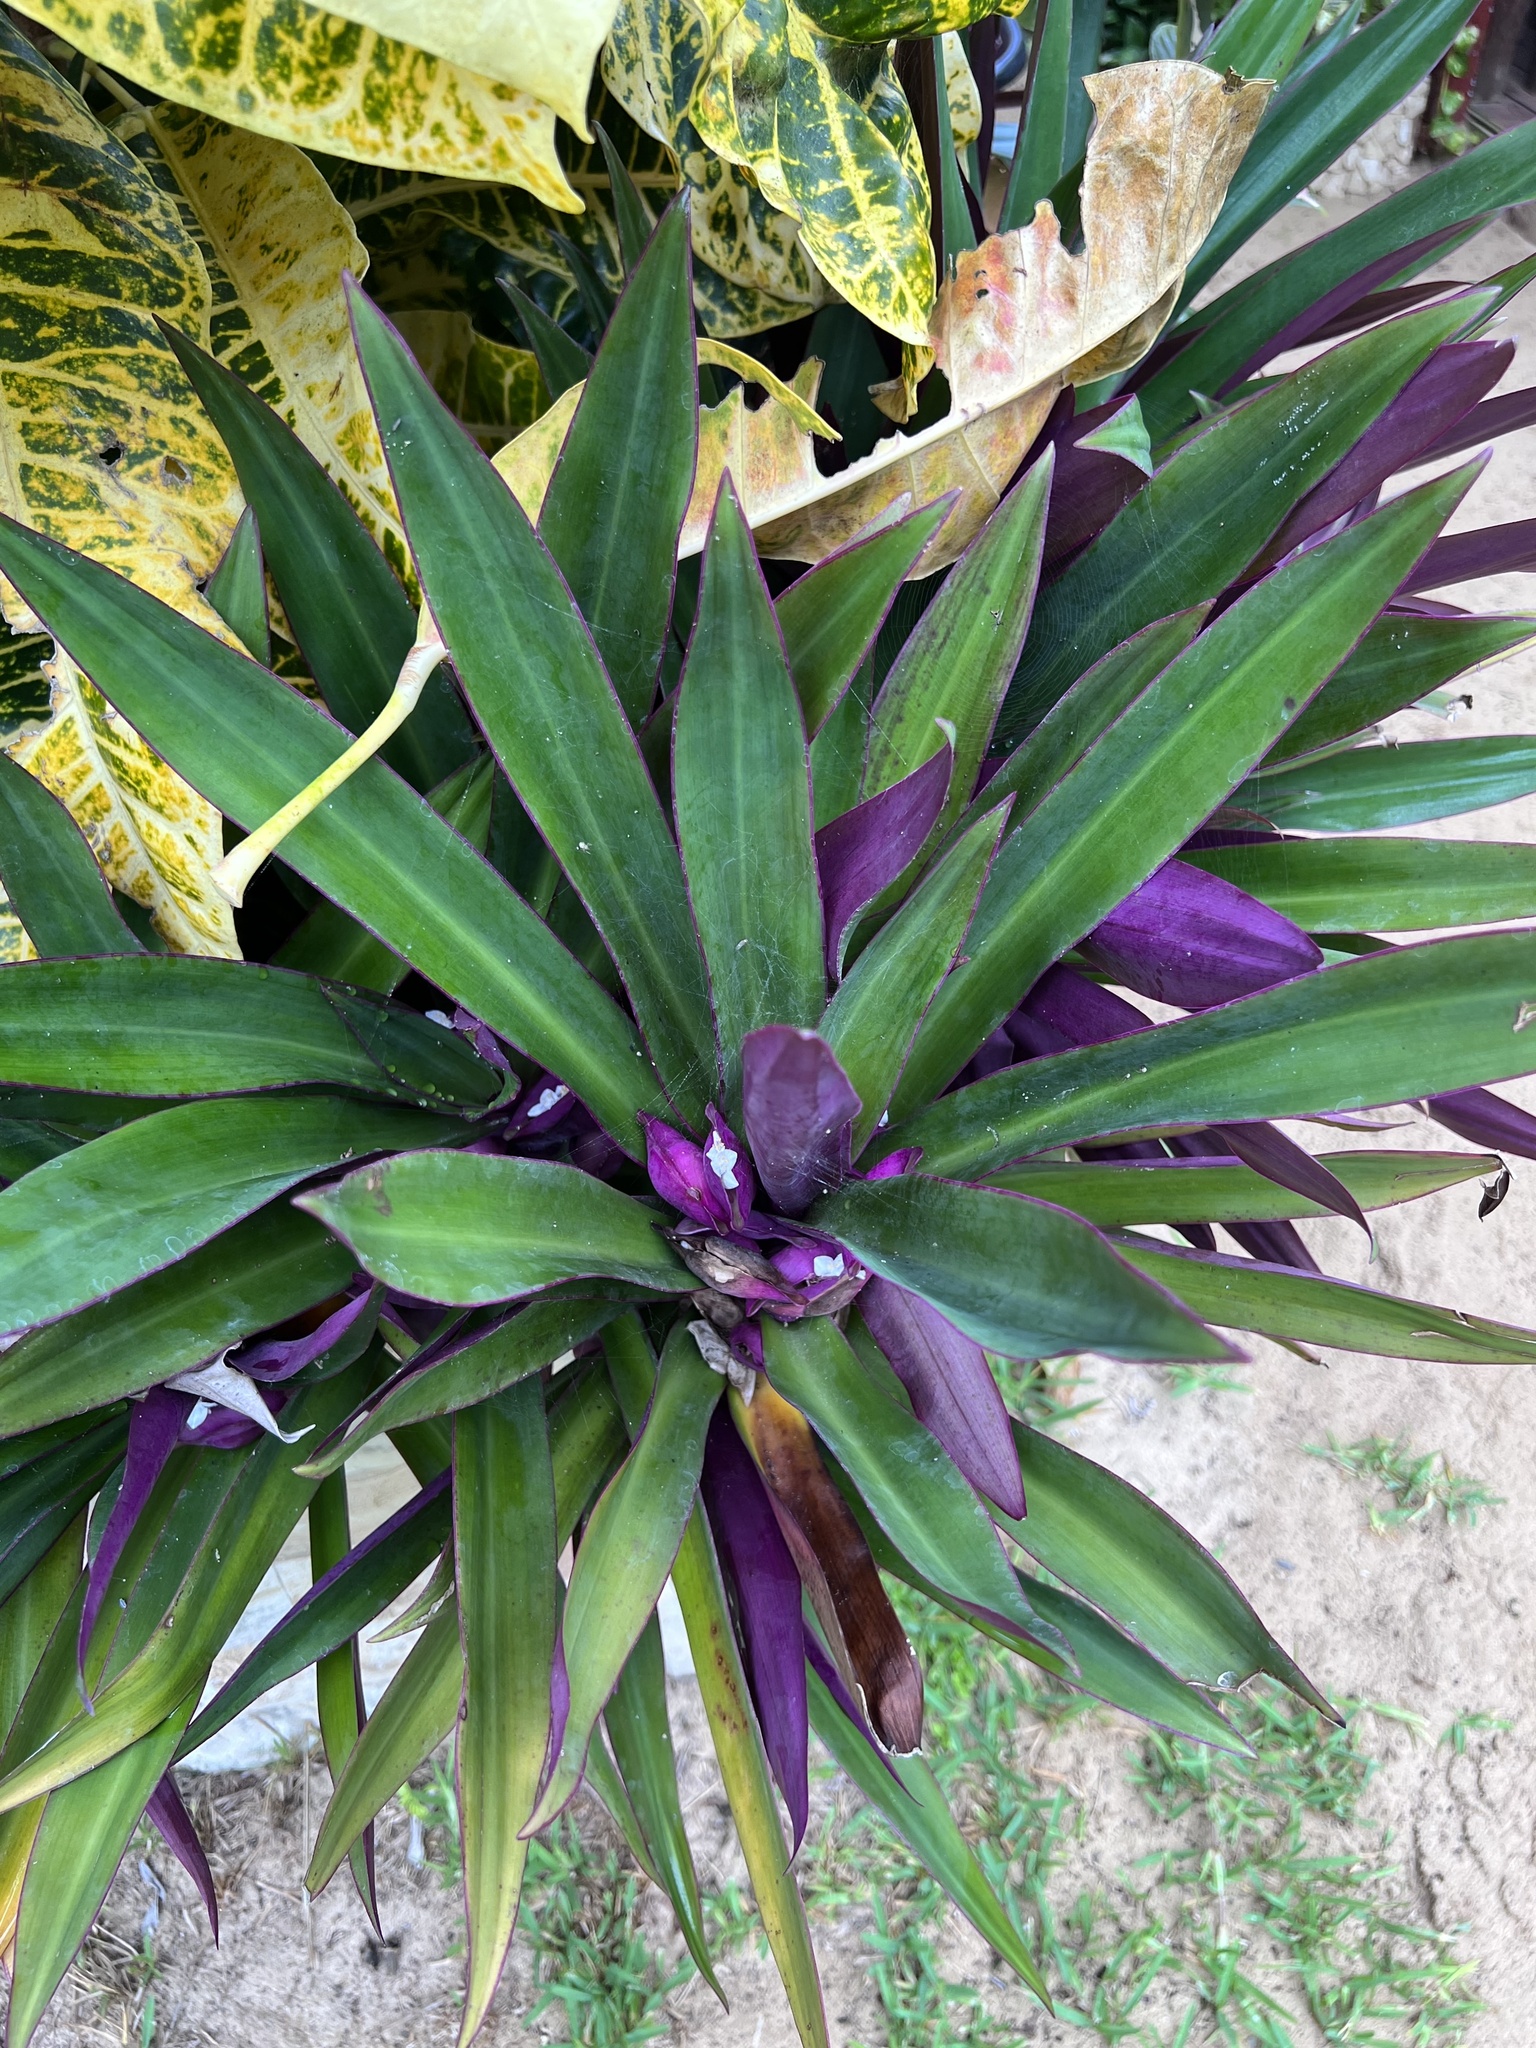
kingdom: Plantae
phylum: Tracheophyta
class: Liliopsida
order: Commelinales
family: Commelinaceae
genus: Tradescantia
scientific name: Tradescantia spathacea
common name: Boatlily
